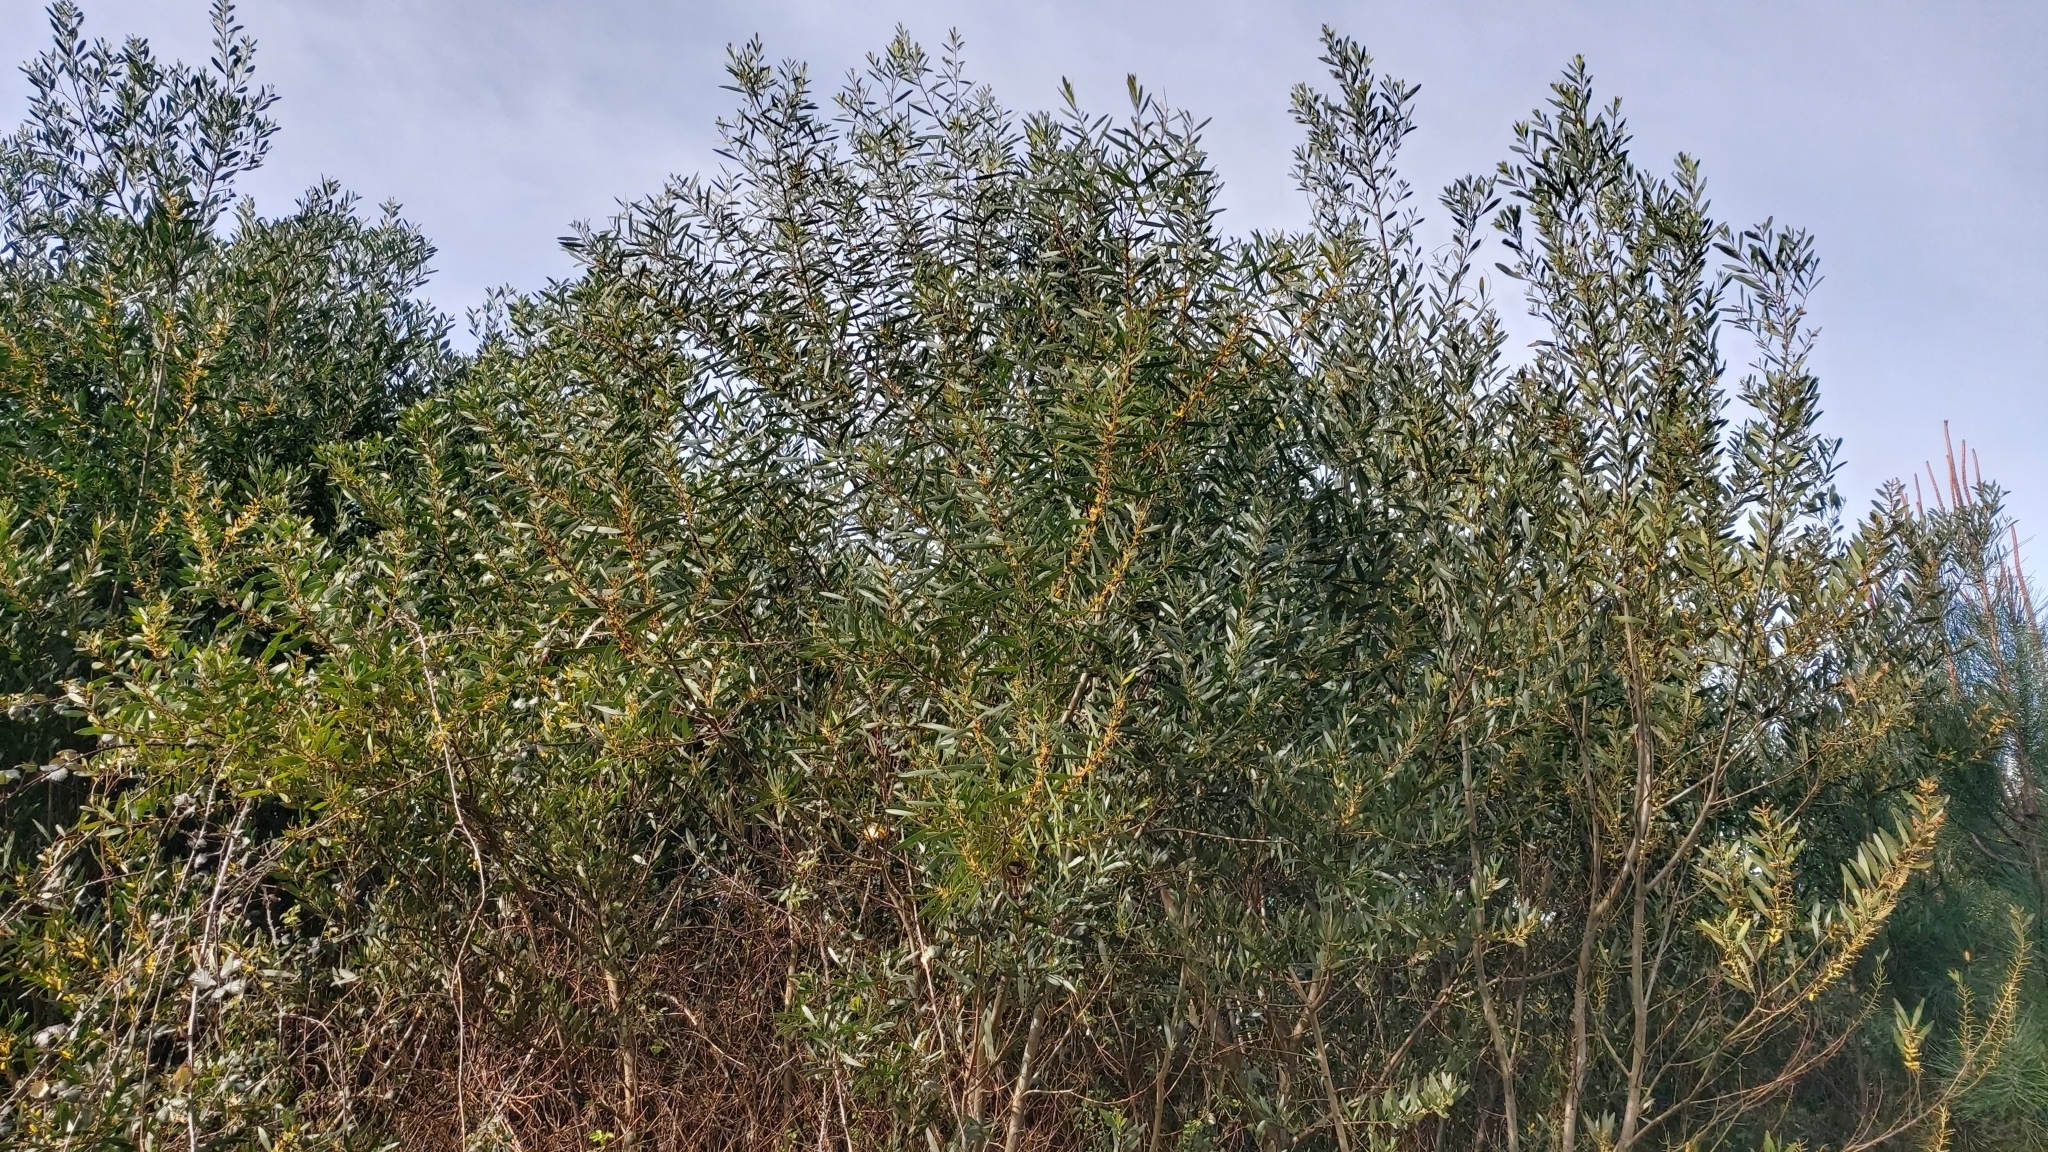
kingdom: Plantae
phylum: Tracheophyta
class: Magnoliopsida
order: Fabales
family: Fabaceae
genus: Acacia
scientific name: Acacia longifolia
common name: Sydney golden wattle
